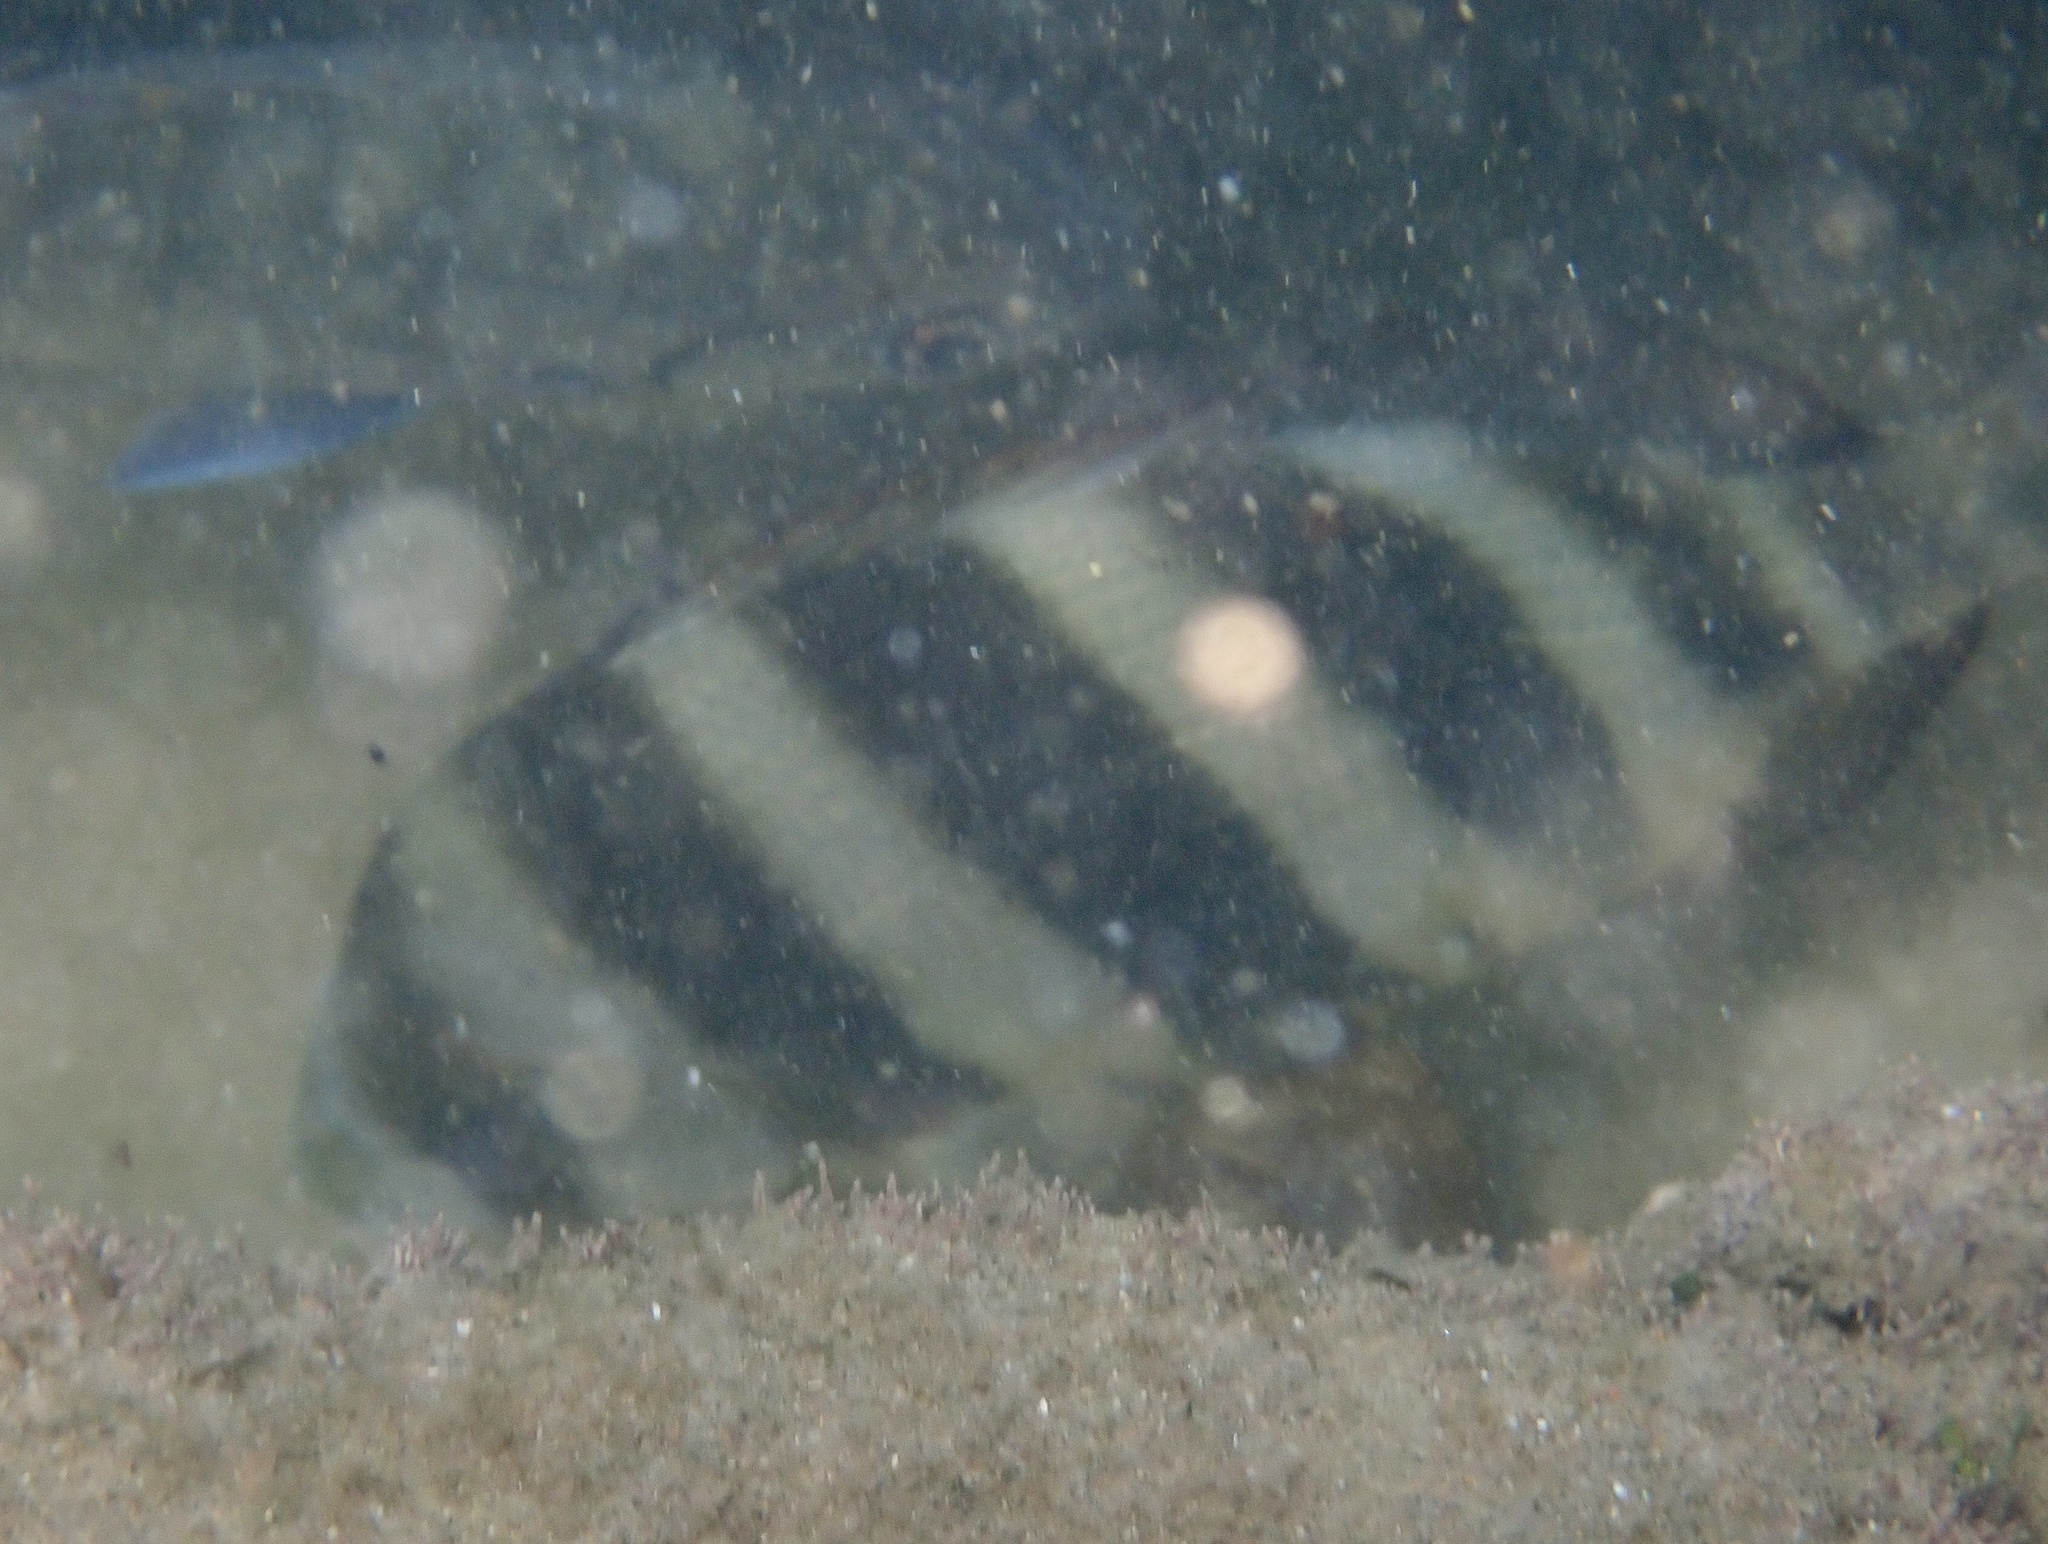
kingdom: Animalia
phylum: Chordata
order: Perciformes
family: Sparidae
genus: Diplodus
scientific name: Diplodus hottentotus
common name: Zebra
